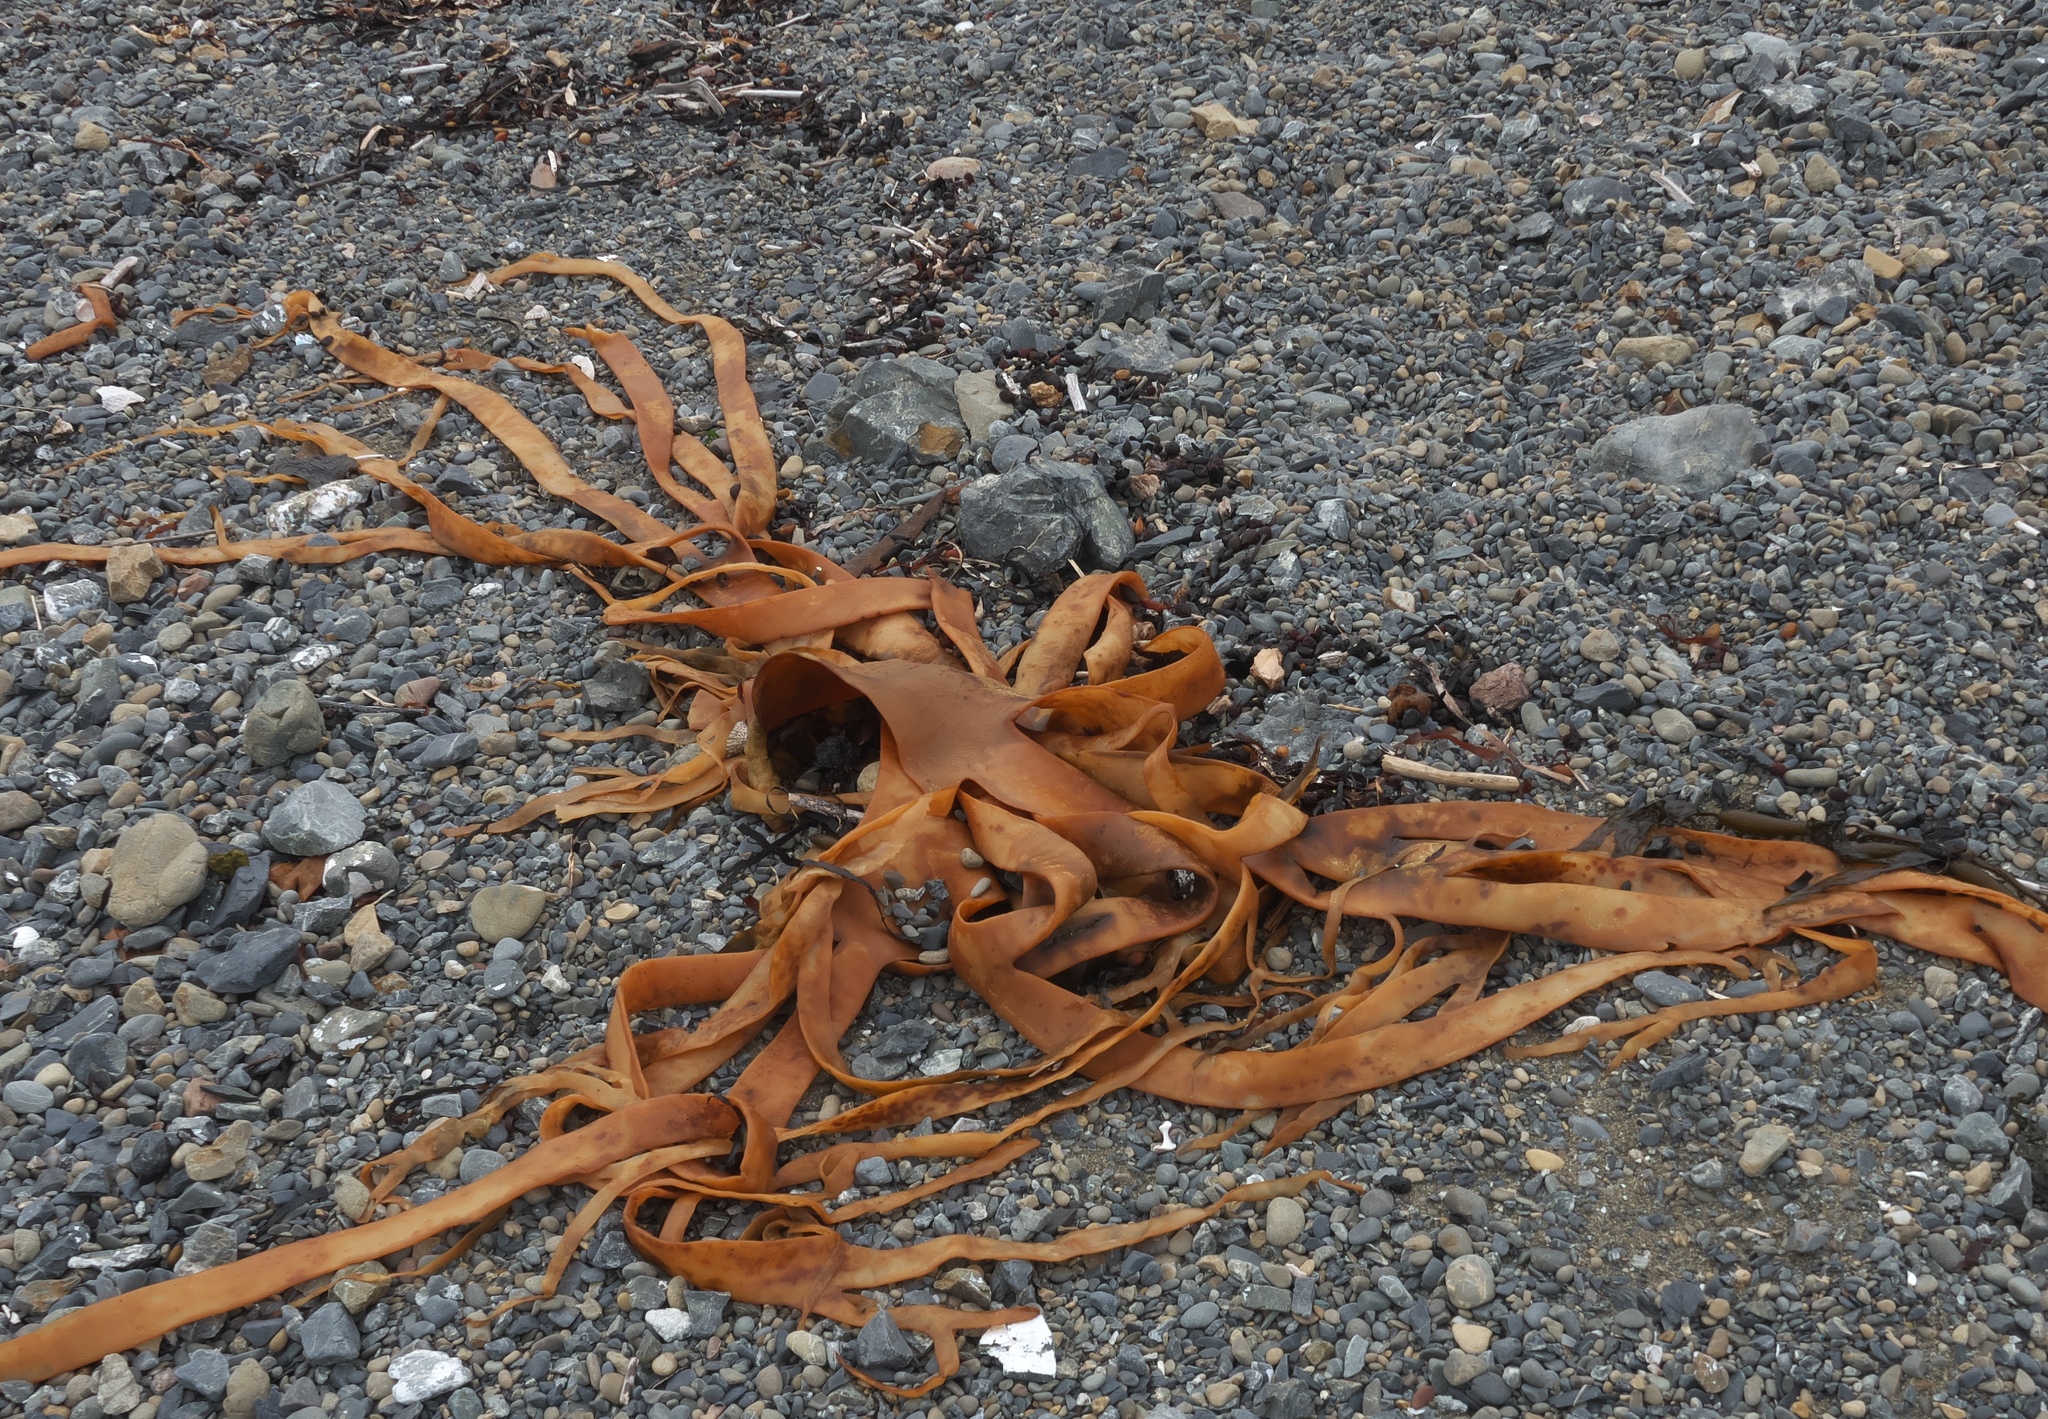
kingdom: Chromista
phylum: Ochrophyta
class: Phaeophyceae
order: Fucales
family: Durvillaeaceae
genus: Durvillaea
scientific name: Durvillaea antarctica
